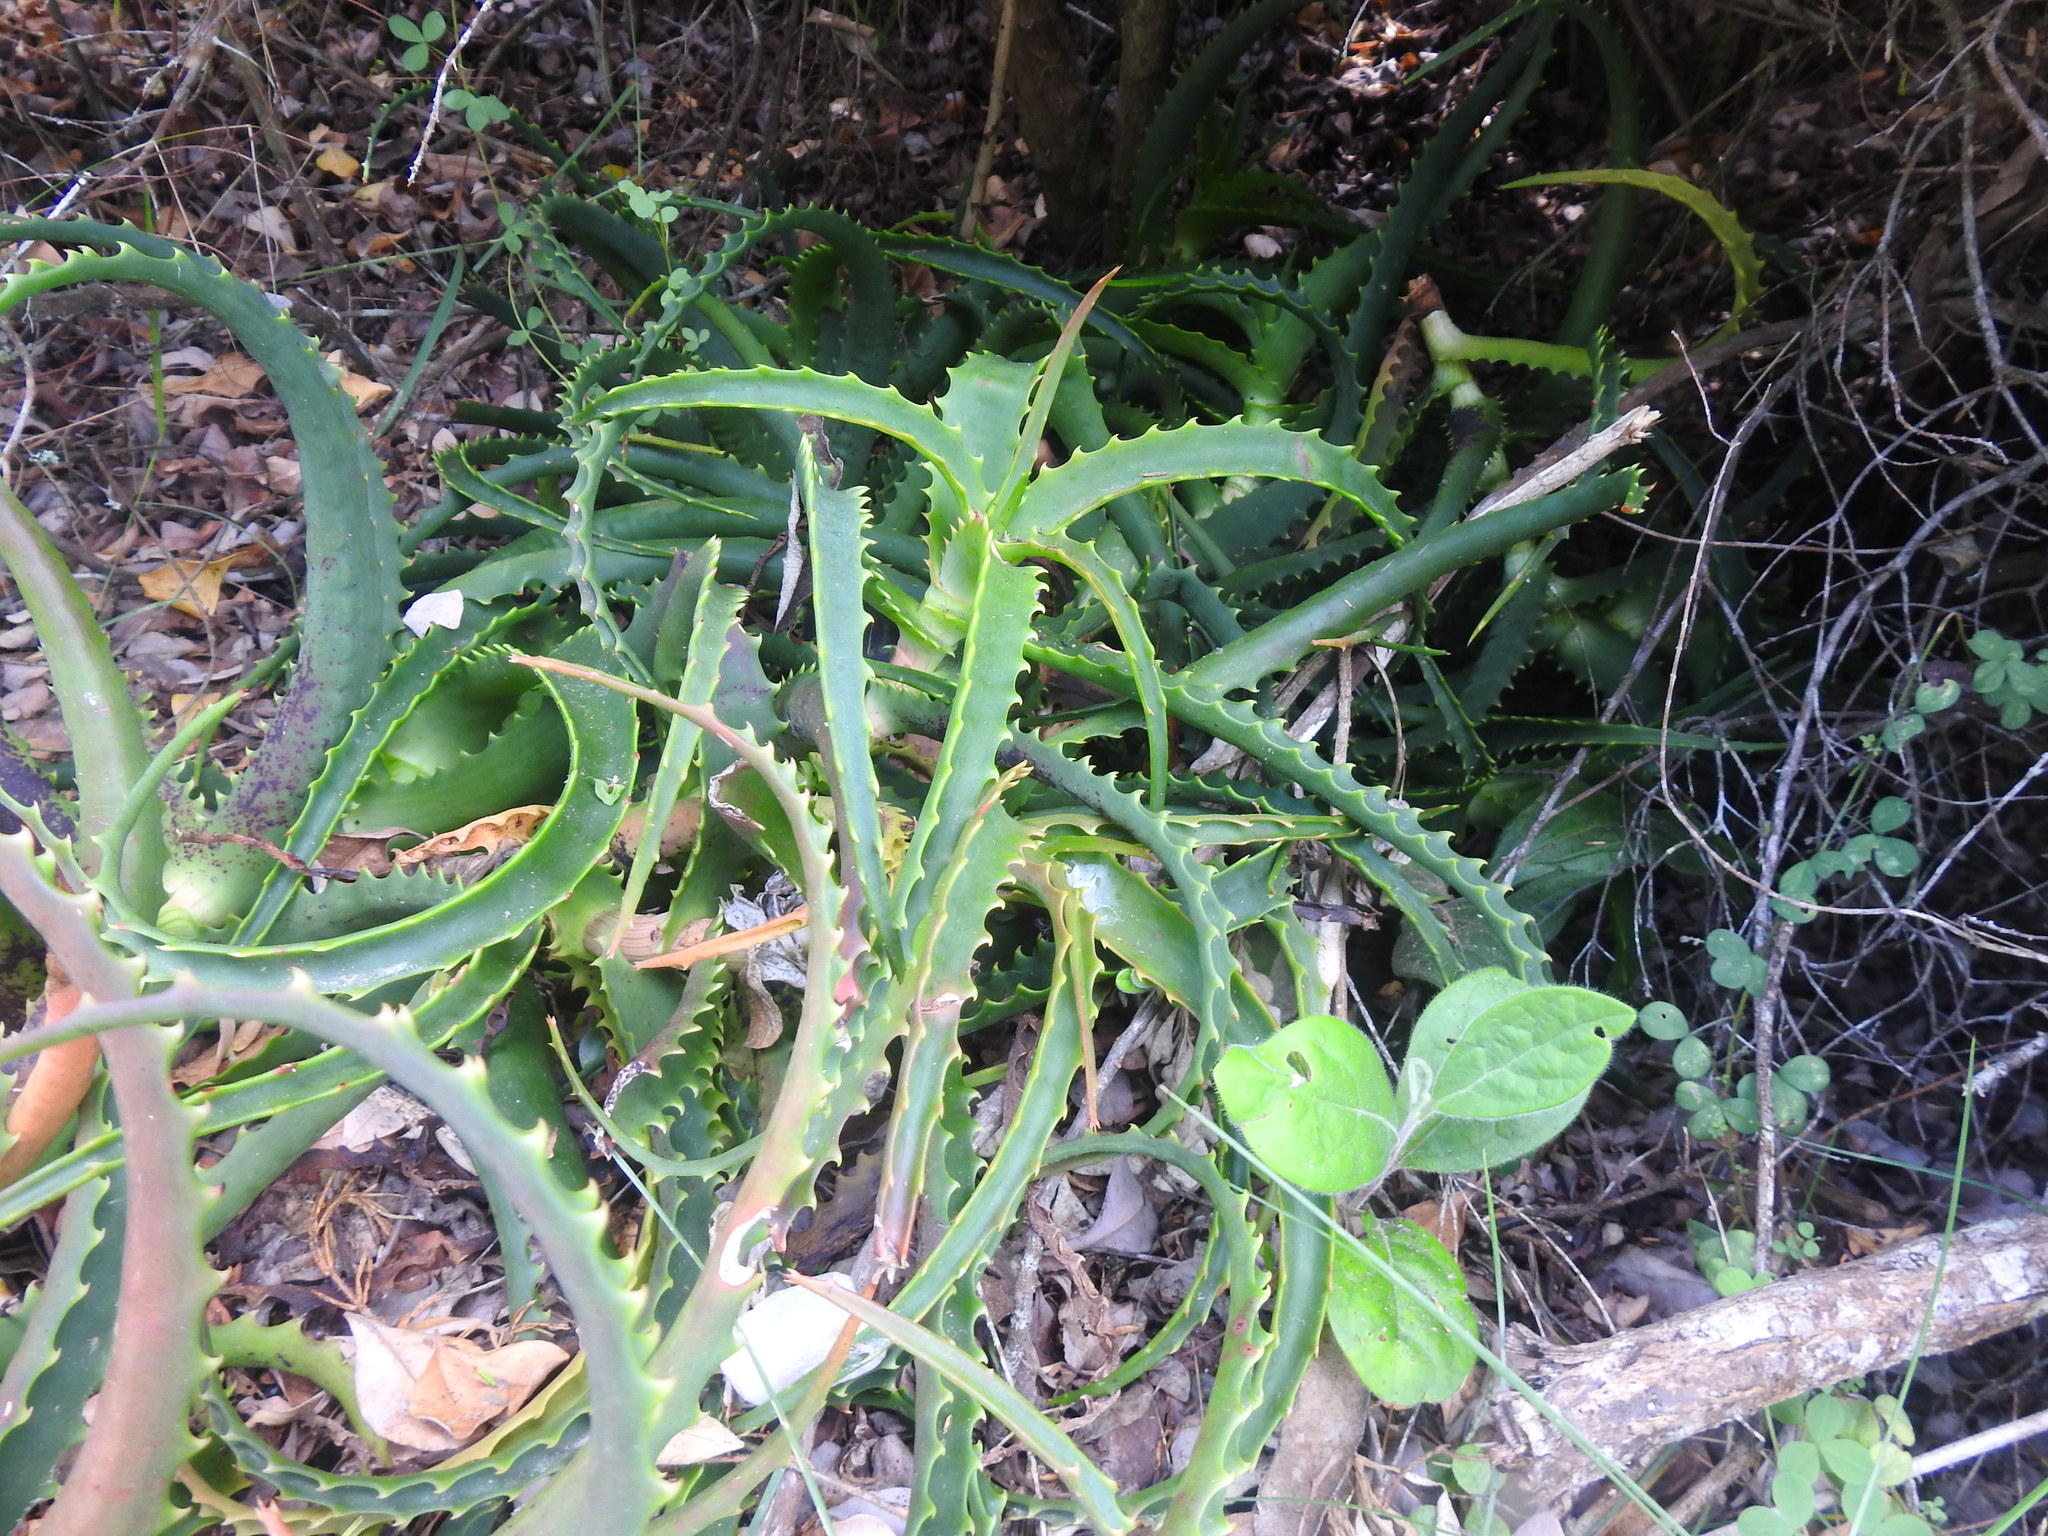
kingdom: Plantae
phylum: Tracheophyta
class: Liliopsida
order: Asparagales
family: Asphodelaceae
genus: Aloe
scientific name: Aloe arborescens
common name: Candelabra aloe
